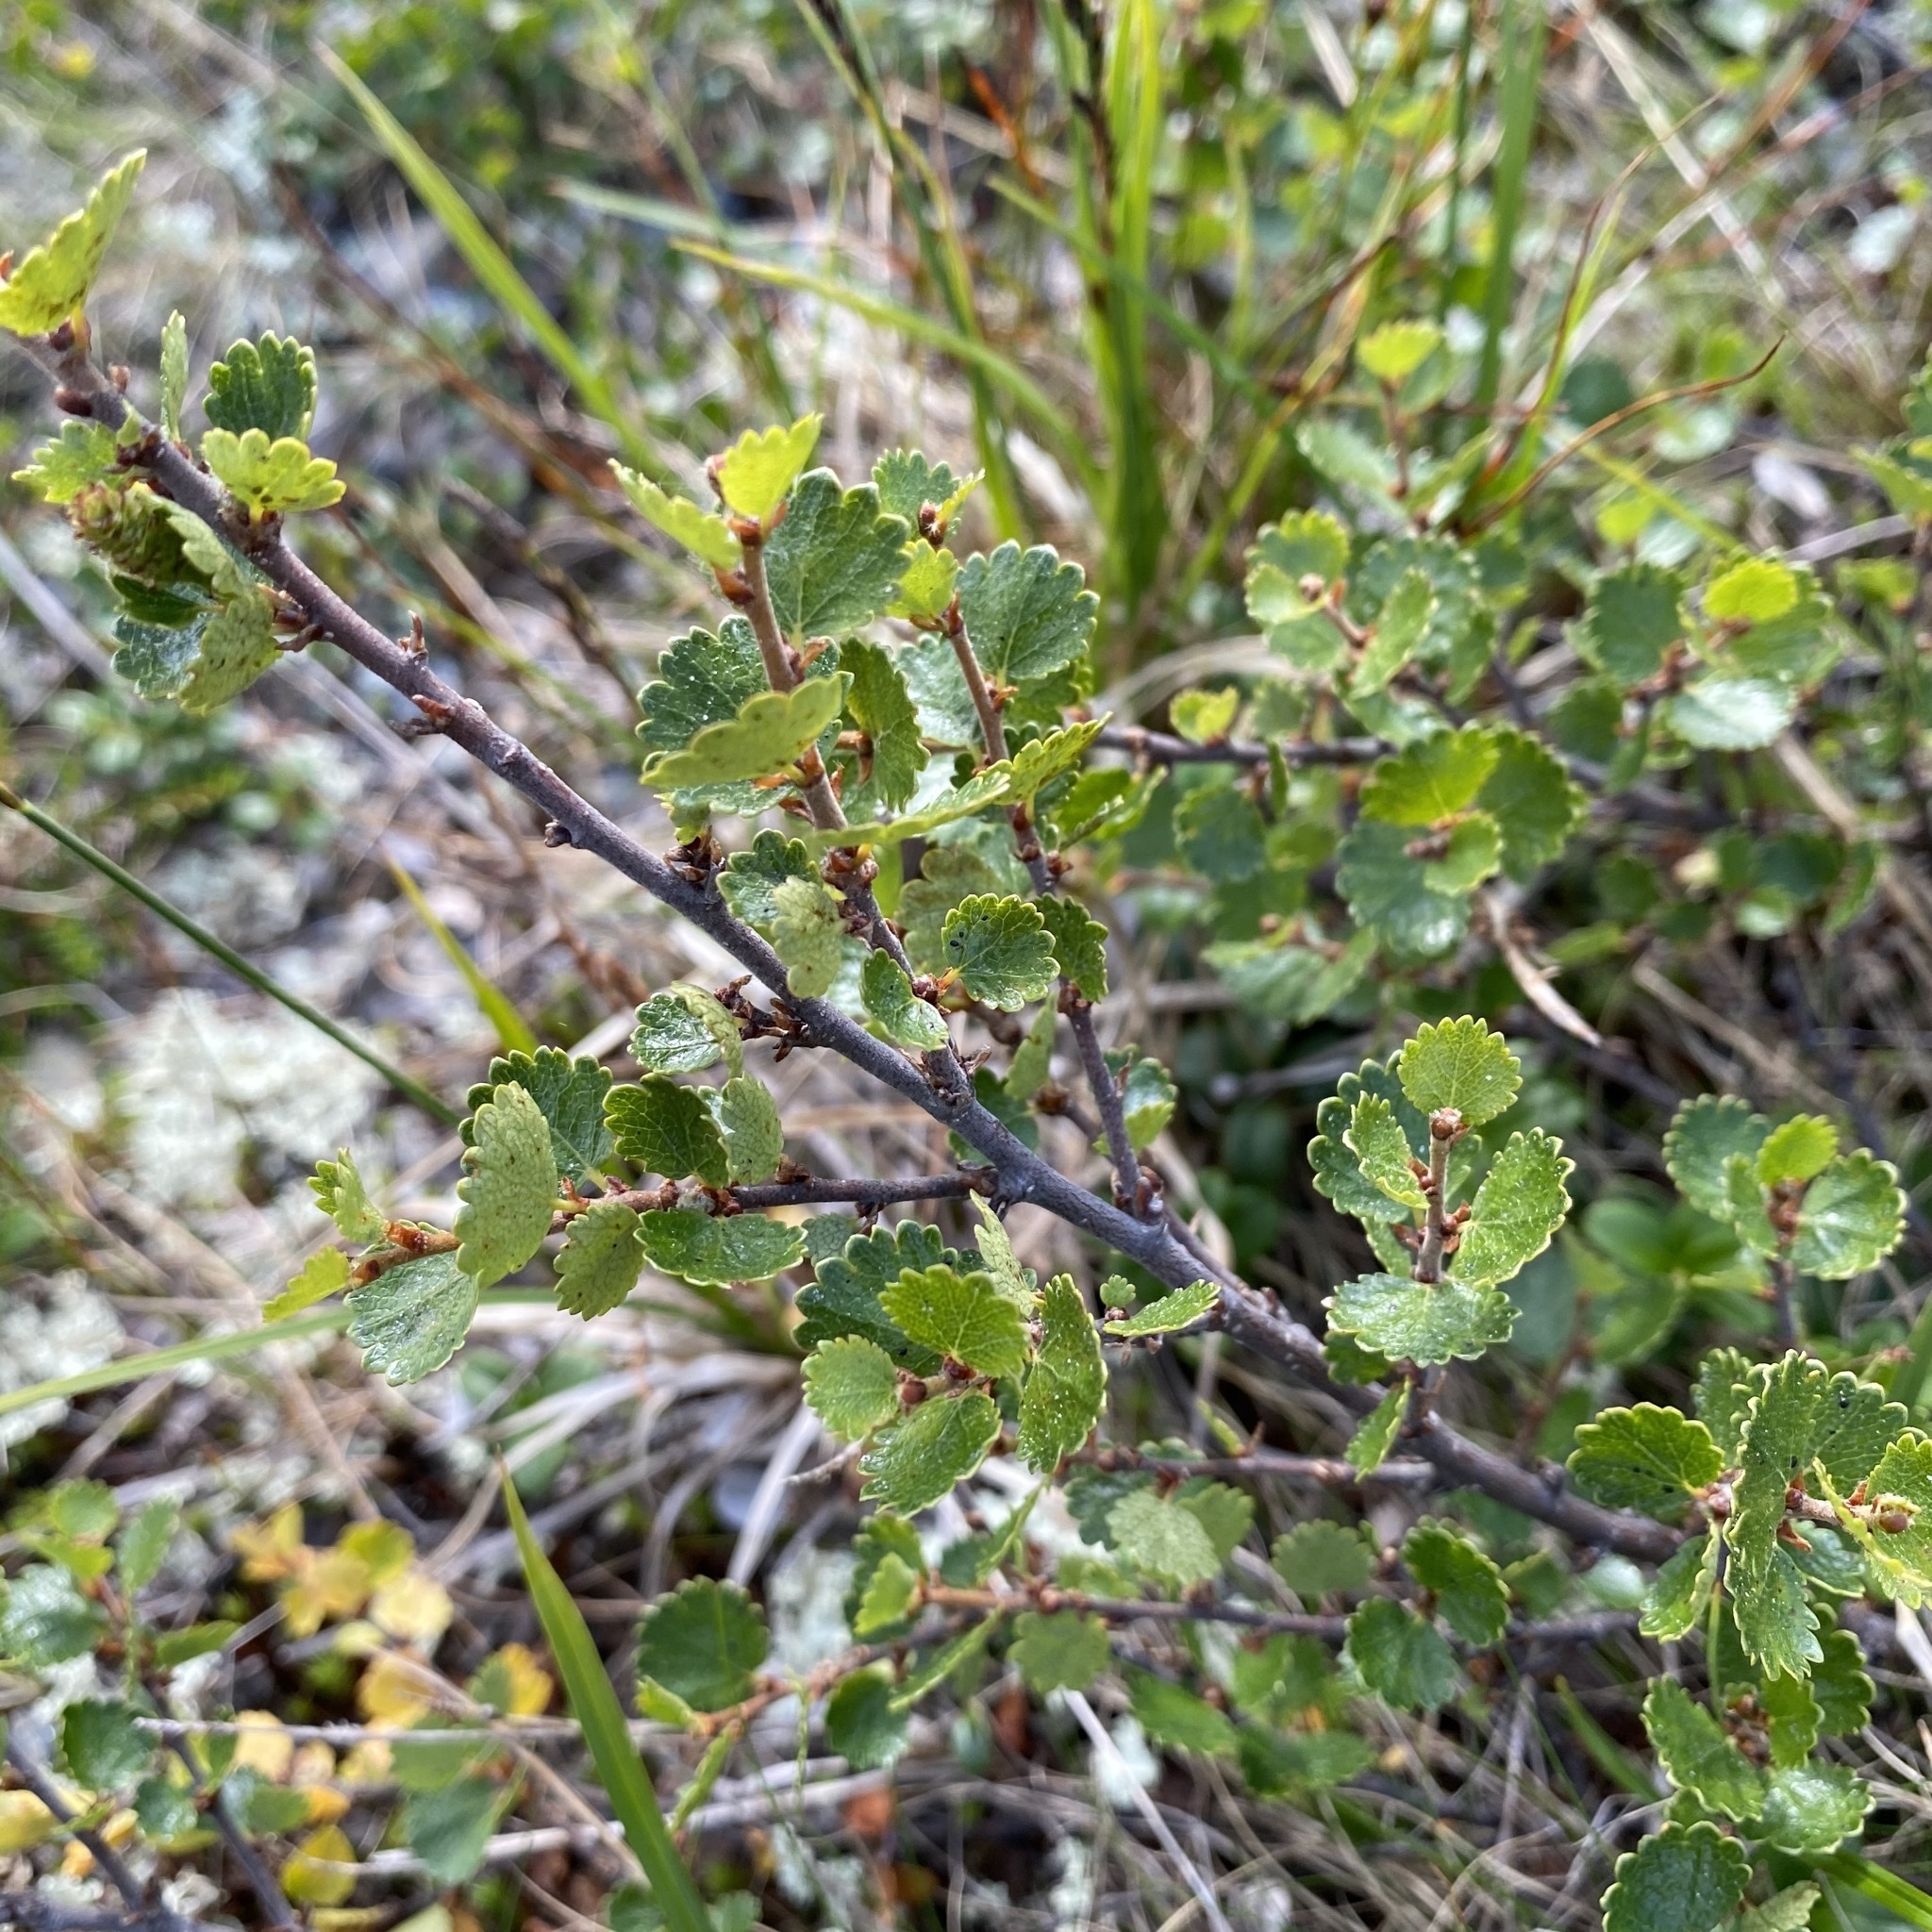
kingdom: Plantae
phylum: Tracheophyta
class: Magnoliopsida
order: Fagales
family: Betulaceae
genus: Betula
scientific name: Betula nana
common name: Arctic dwarf birch
